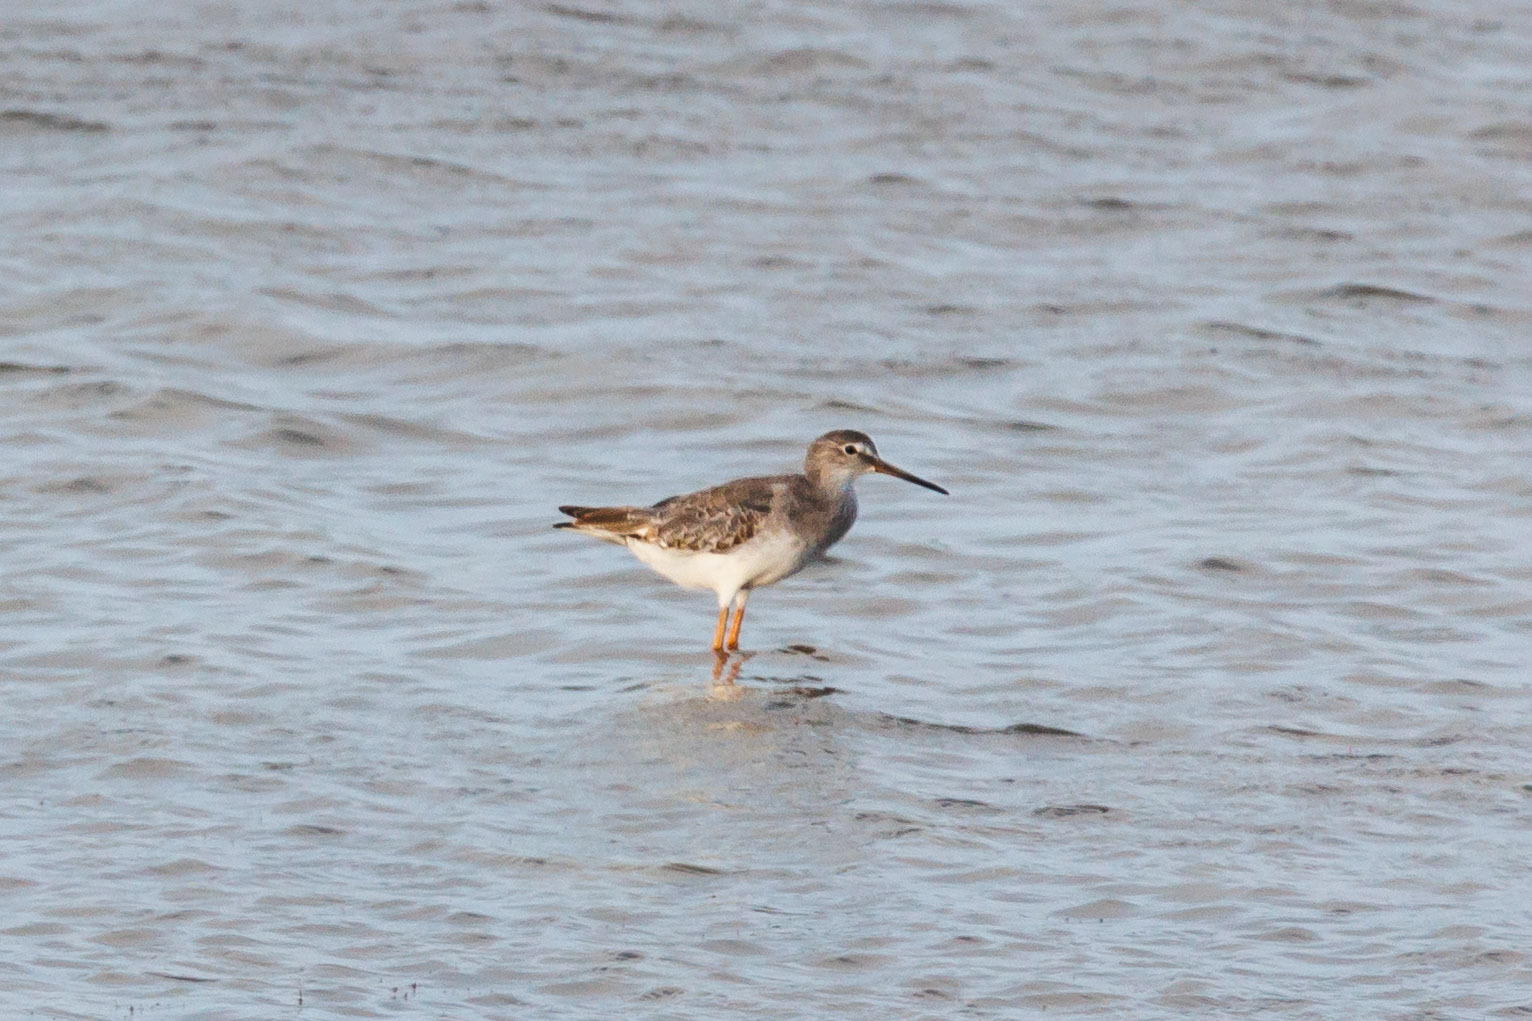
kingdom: Animalia
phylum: Chordata
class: Aves
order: Charadriiformes
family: Scolopacidae
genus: Tringa
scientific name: Tringa totanus
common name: Common redshank
